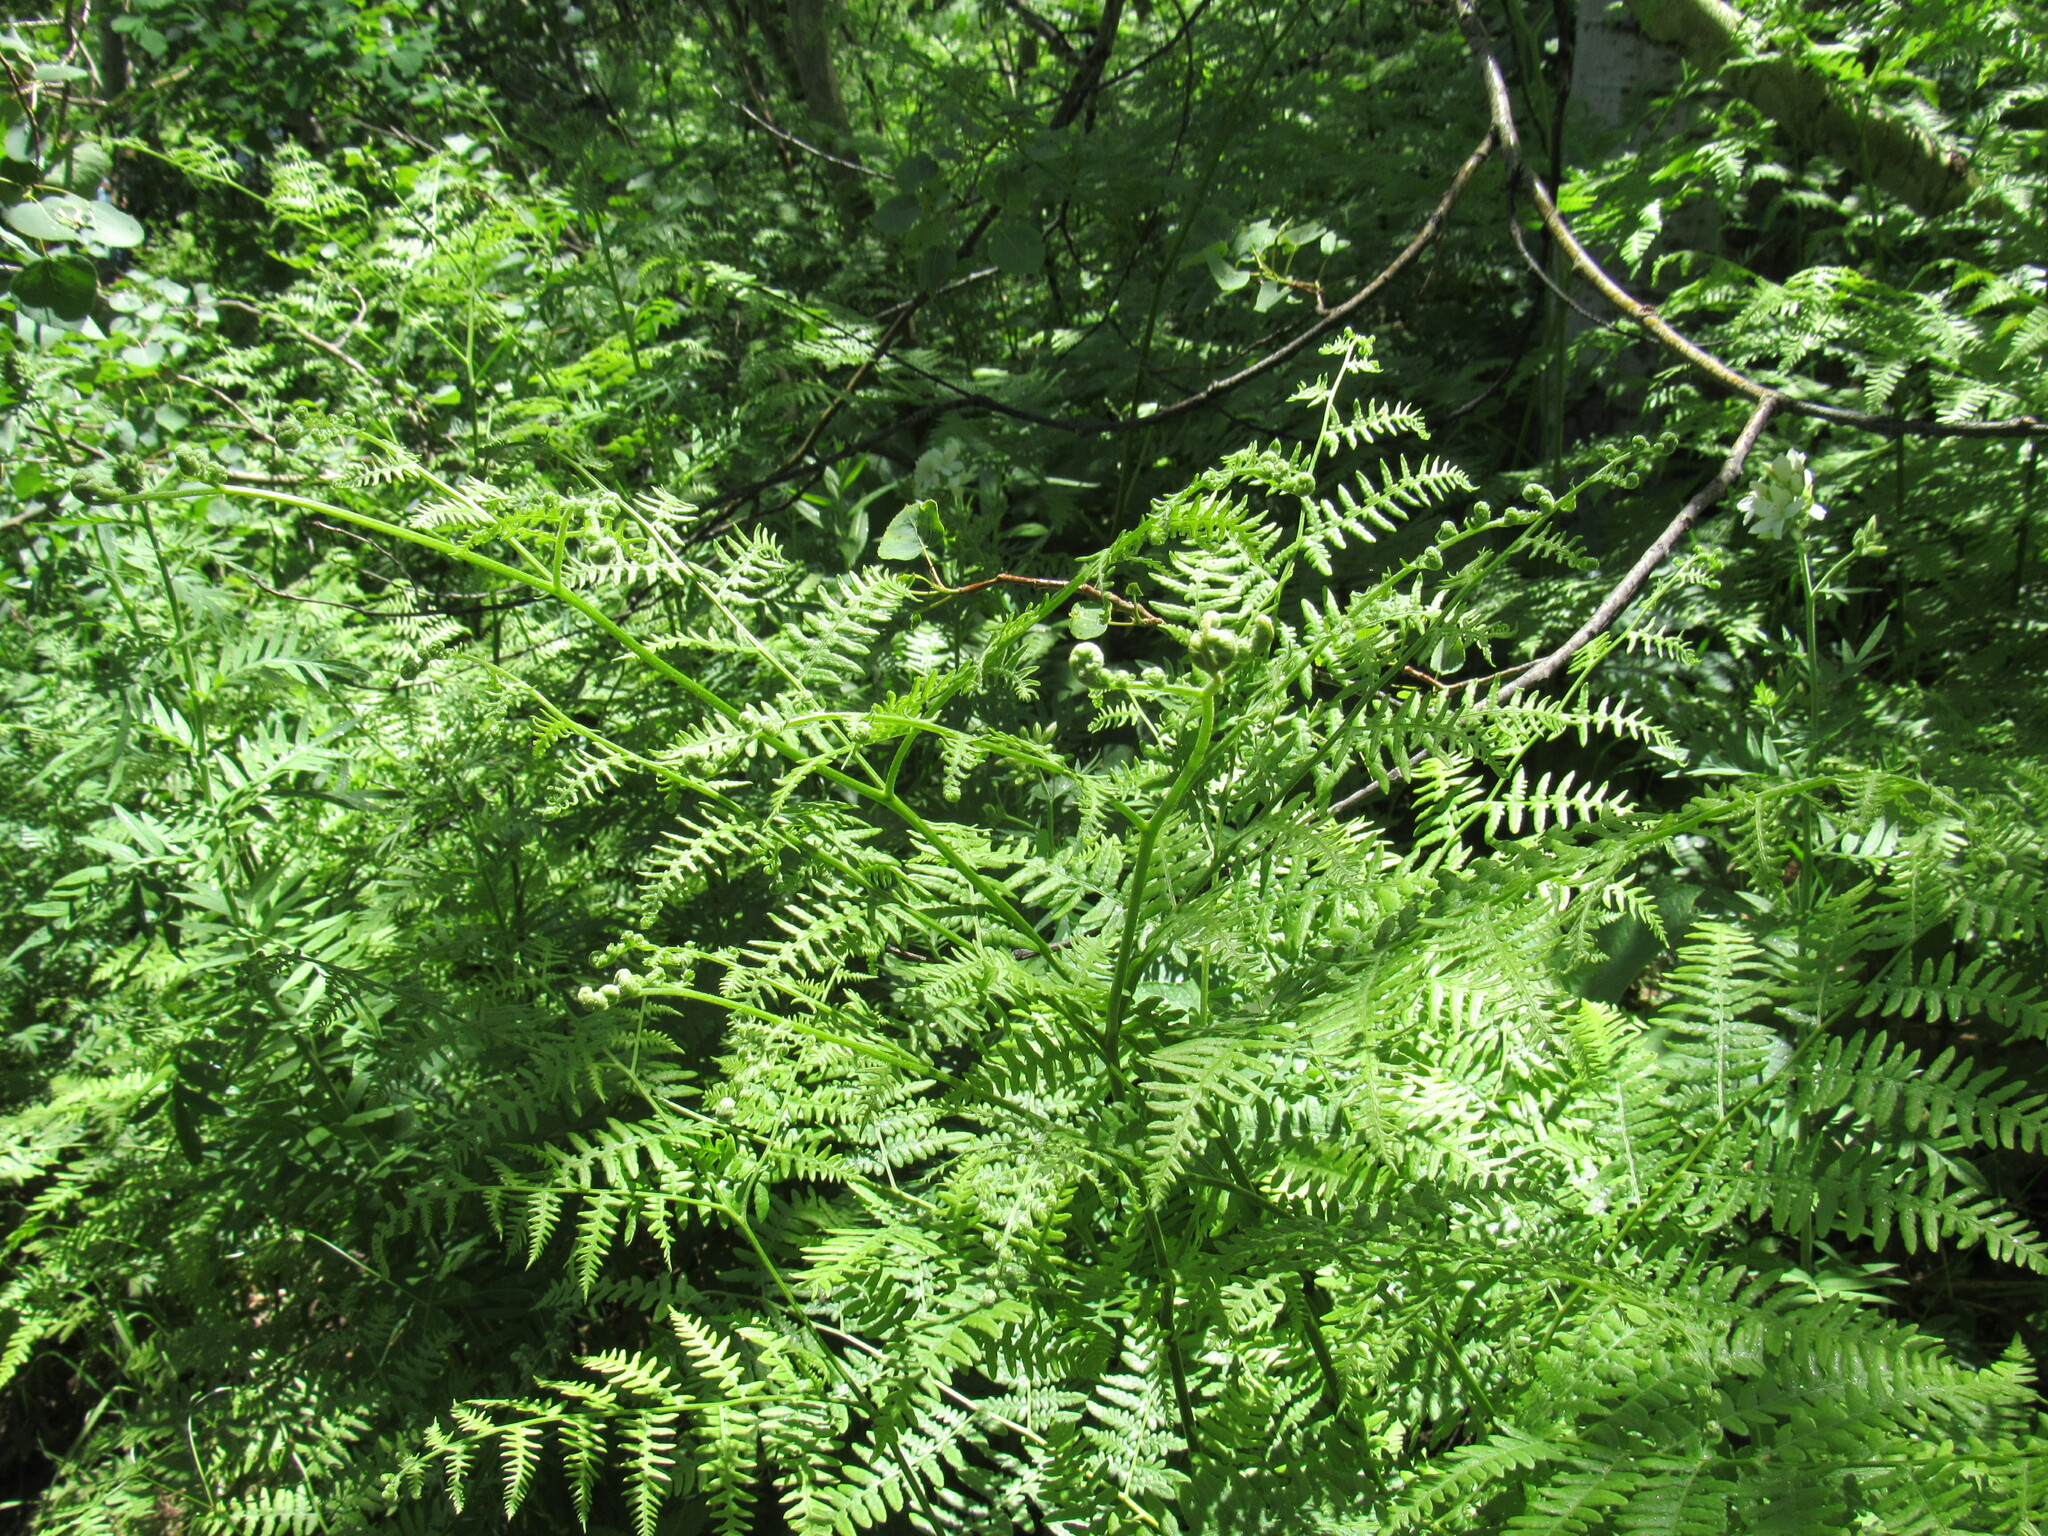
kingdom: Plantae
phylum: Tracheophyta
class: Polypodiopsida
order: Polypodiales
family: Dennstaedtiaceae
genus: Pteridium
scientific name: Pteridium aquilinum
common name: Bracken
